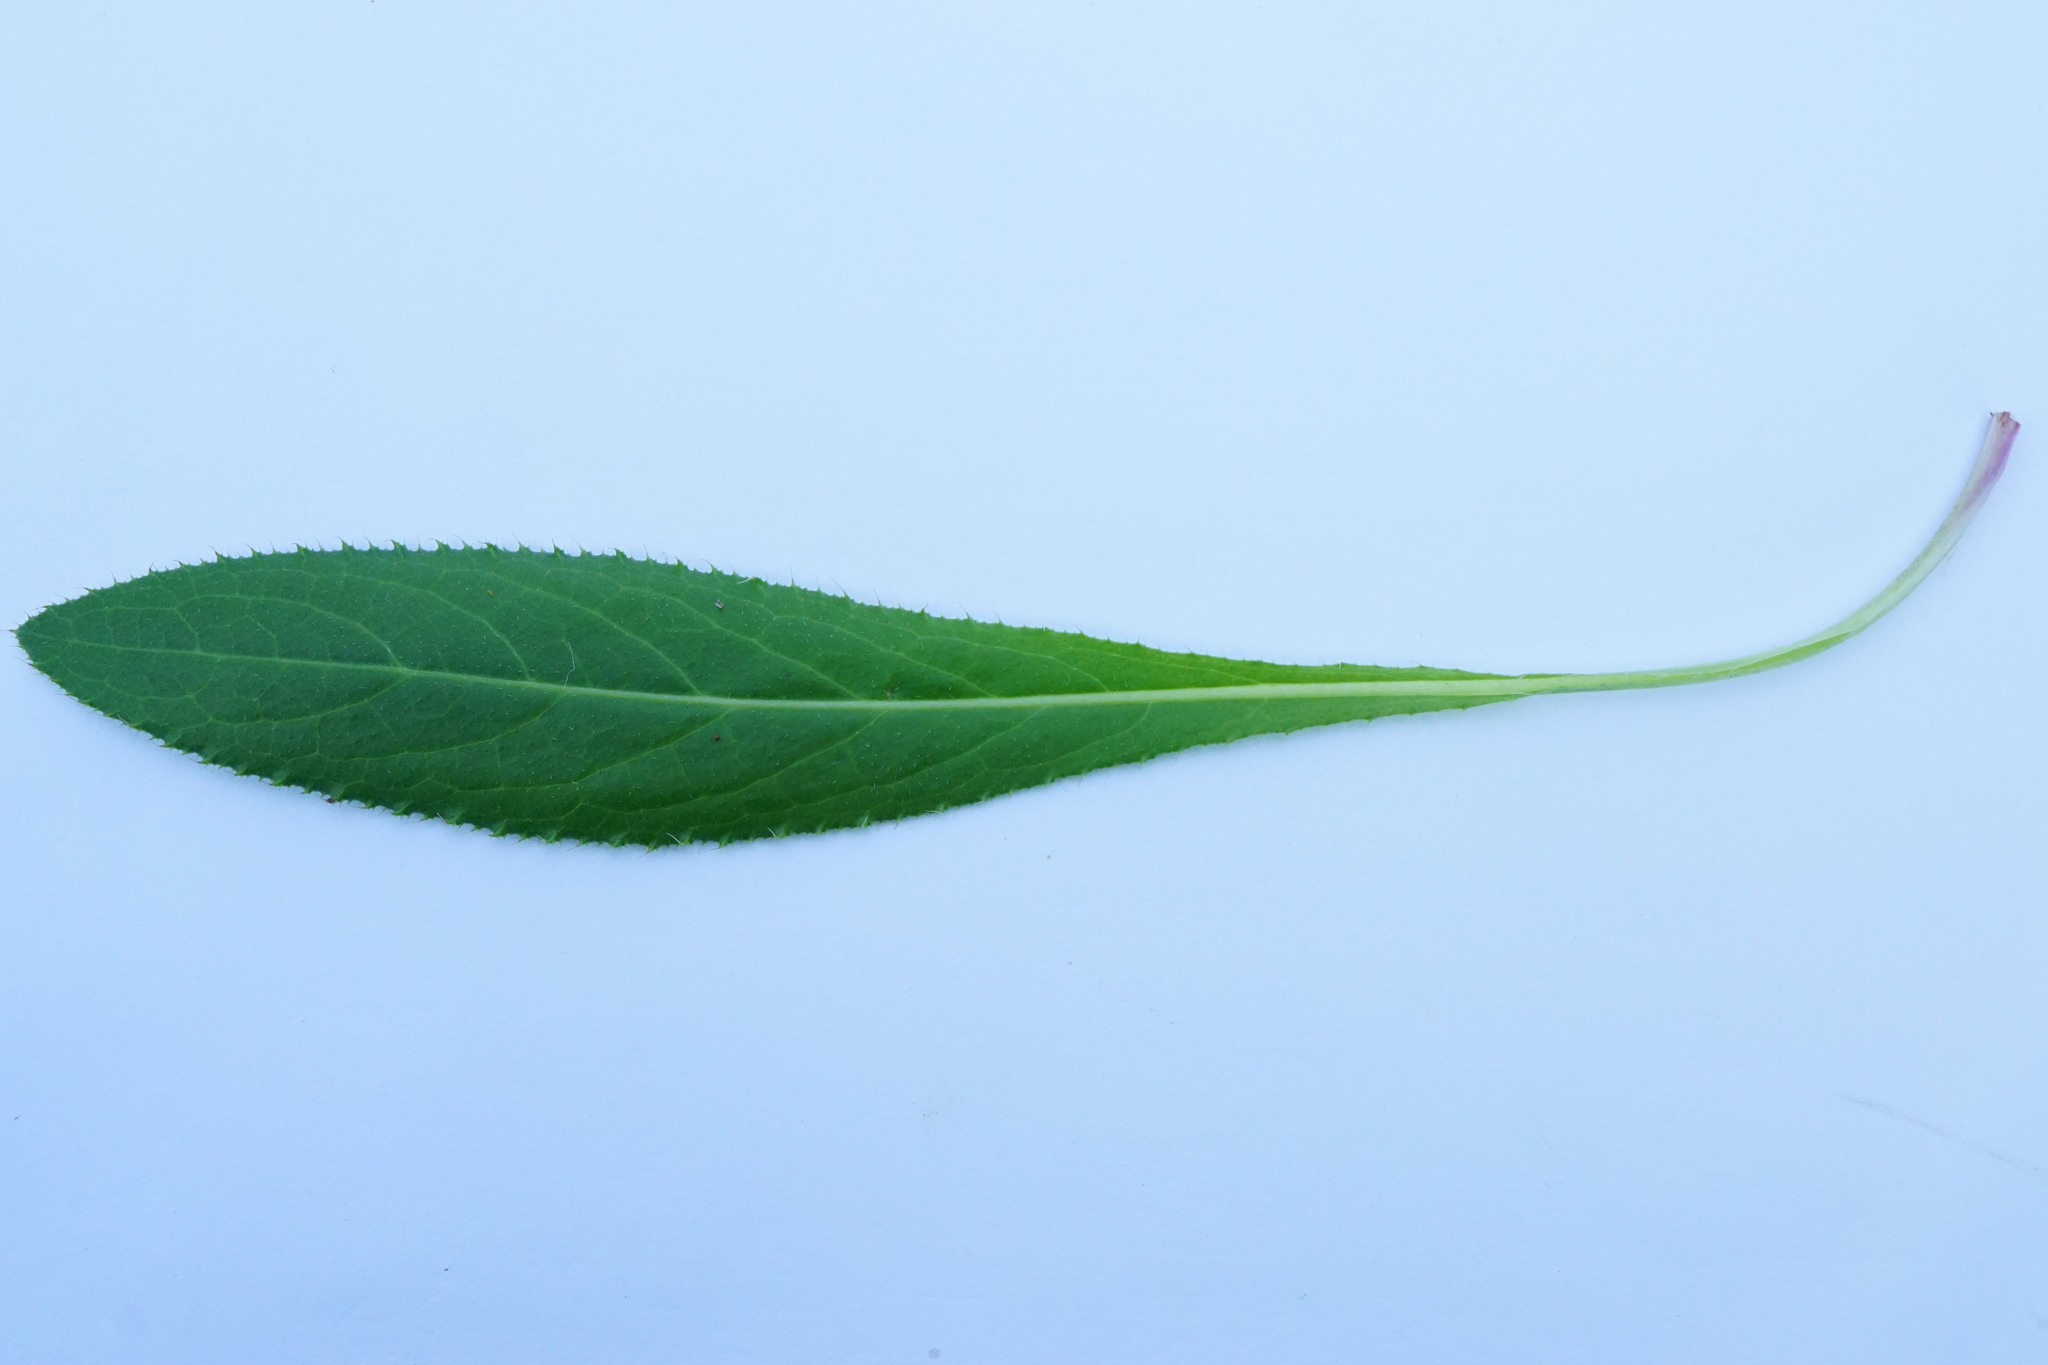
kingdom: Plantae
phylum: Tracheophyta
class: Magnoliopsida
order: Asterales
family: Asteraceae
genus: Cirsium
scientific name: Cirsium arvense
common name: Creeping thistle
